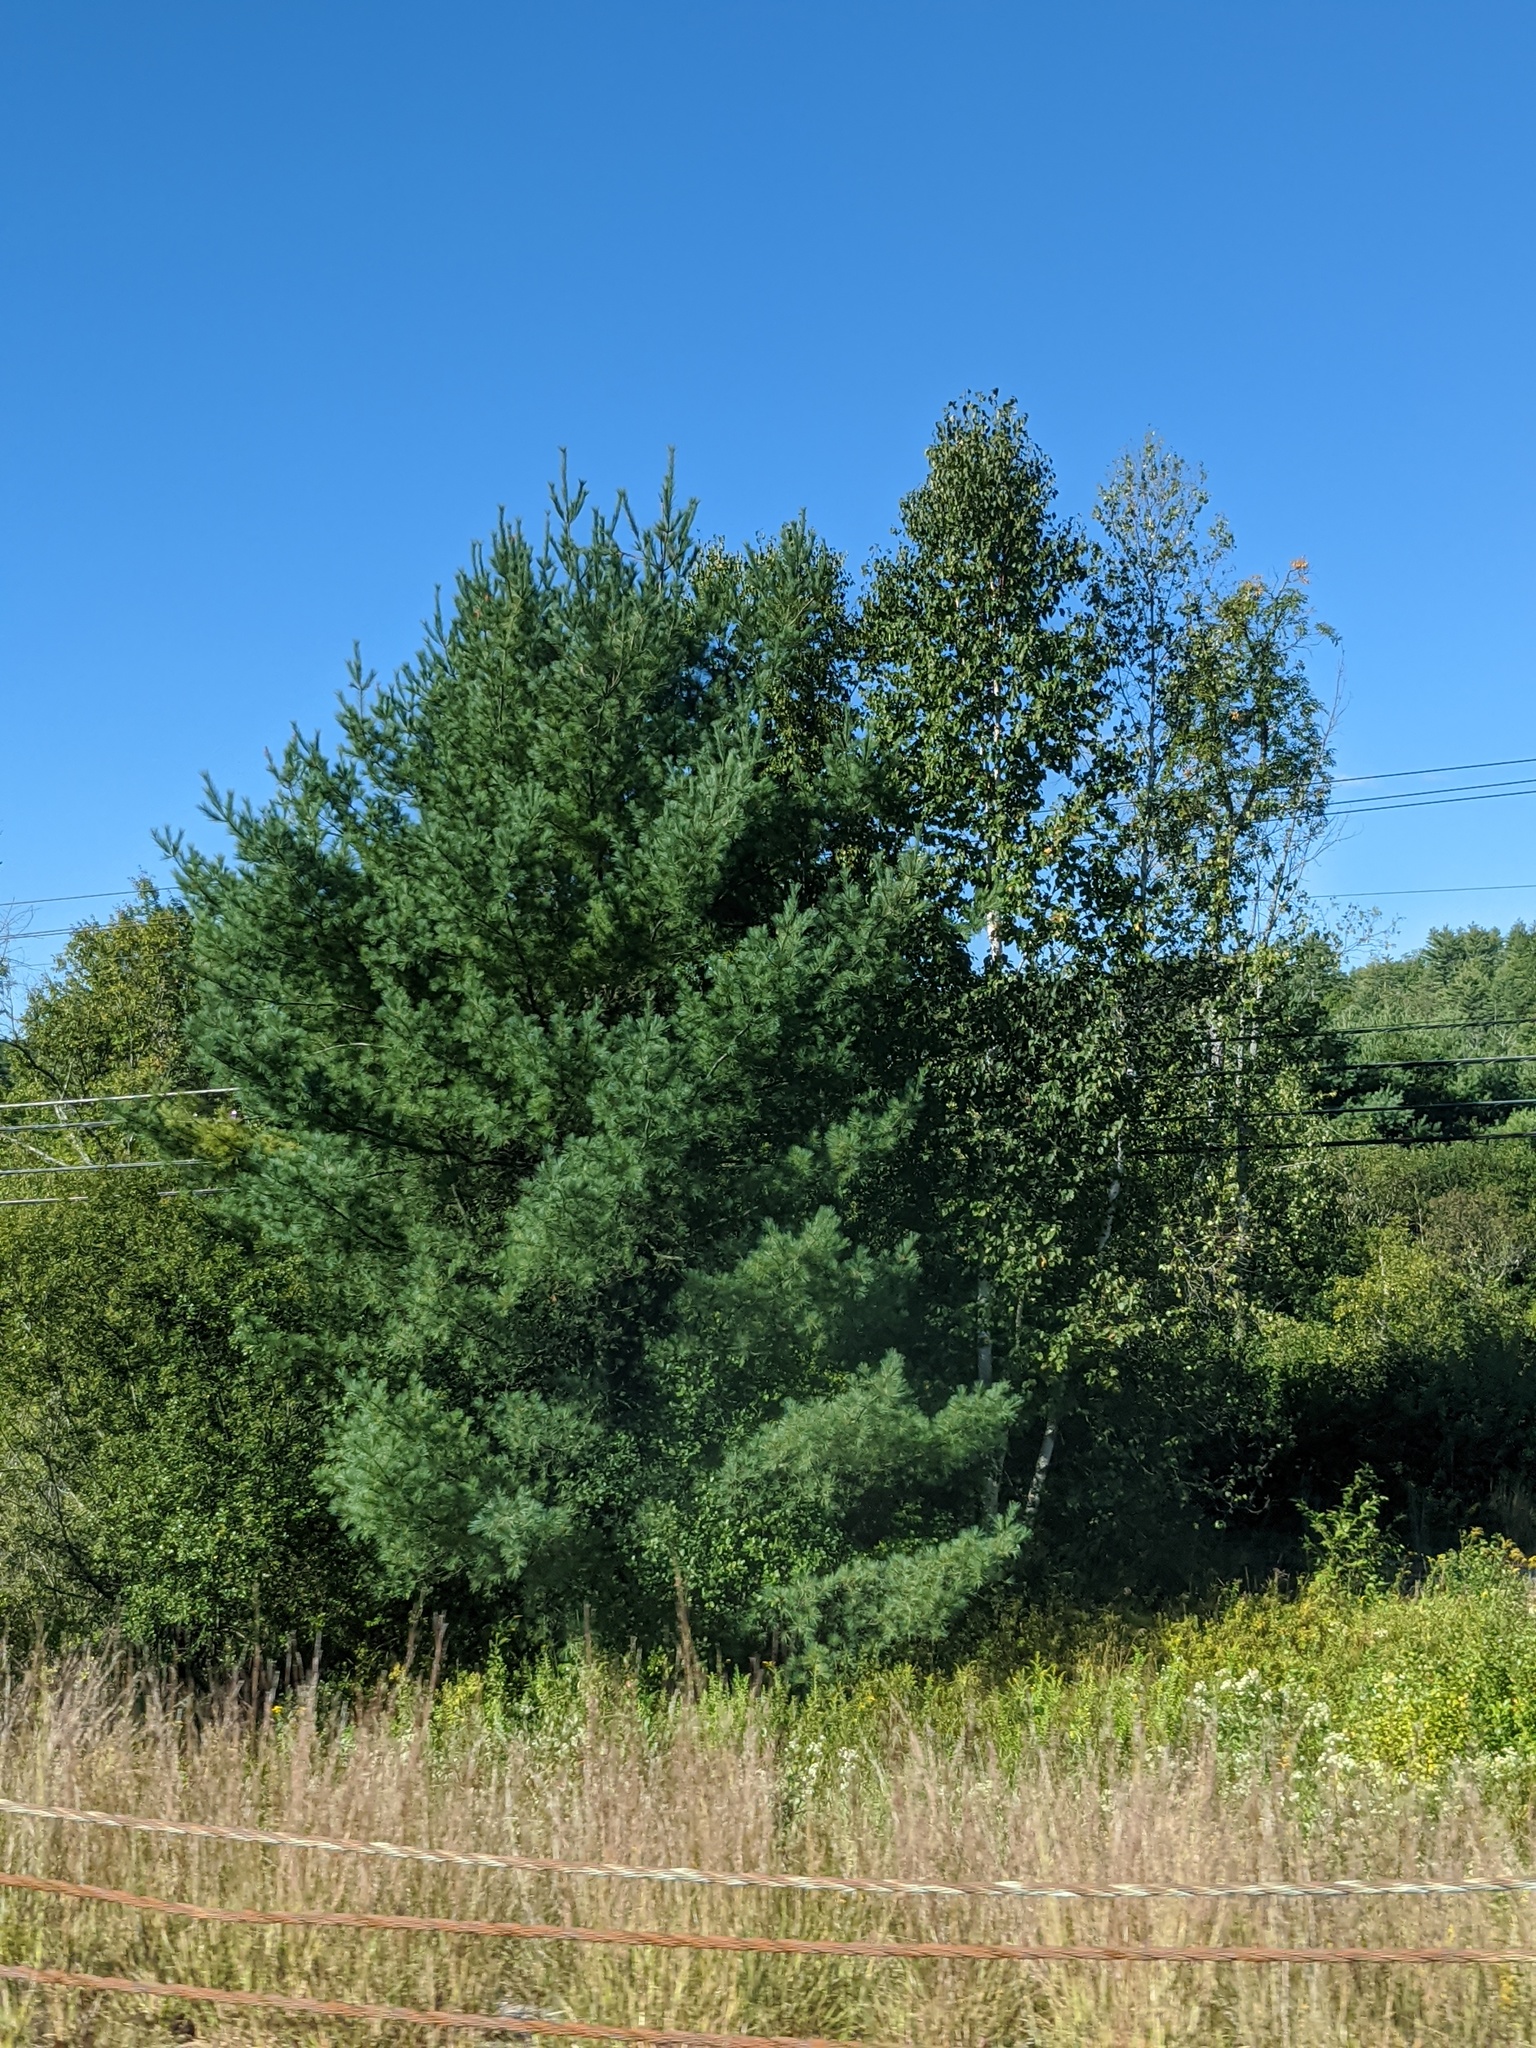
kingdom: Plantae
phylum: Tracheophyta
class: Pinopsida
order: Pinales
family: Pinaceae
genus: Pinus
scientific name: Pinus strobus
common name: Weymouth pine
